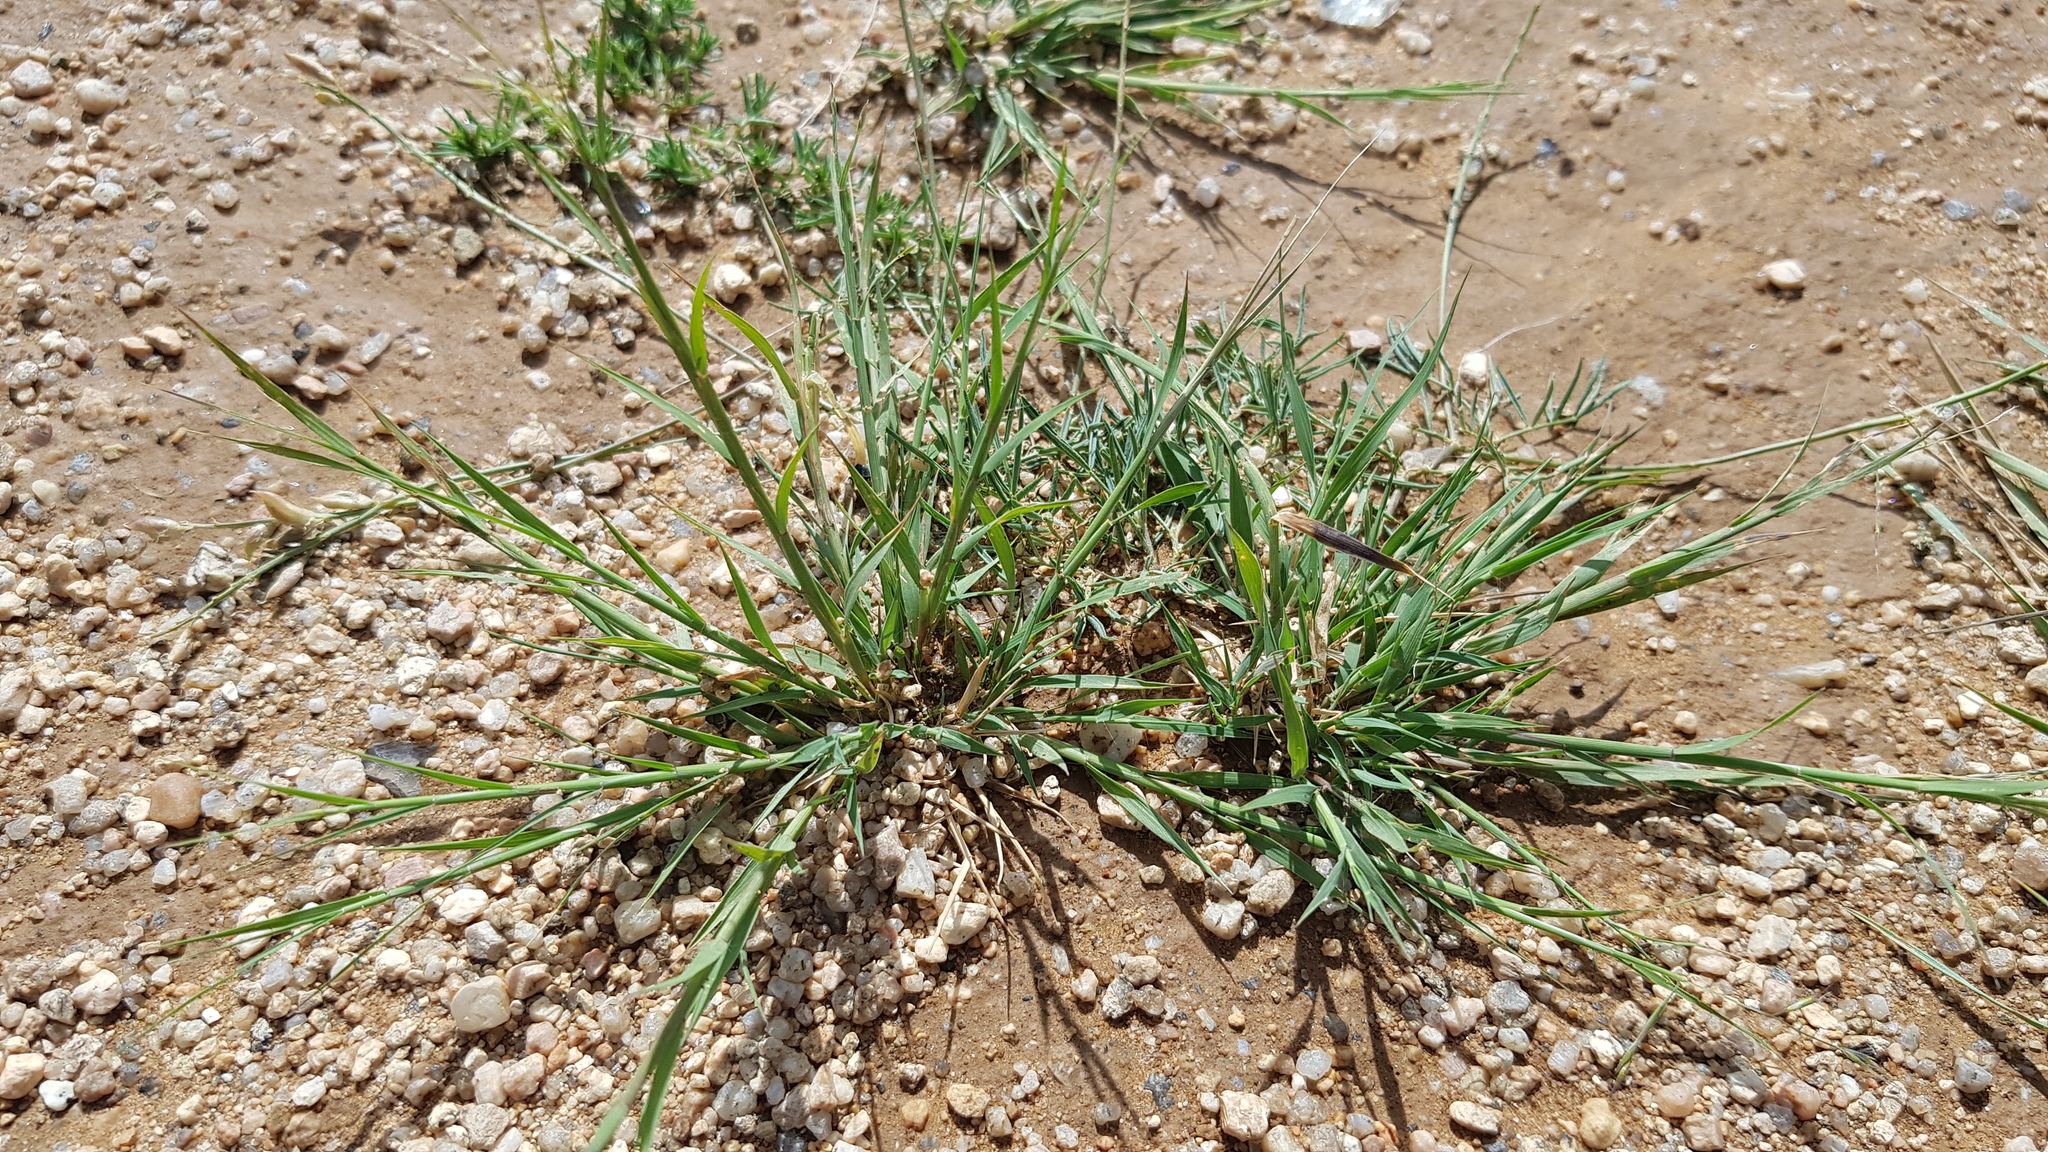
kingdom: Plantae
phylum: Tracheophyta
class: Liliopsida
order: Poales
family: Poaceae
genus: Cleistogenes
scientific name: Cleistogenes squarrosa
